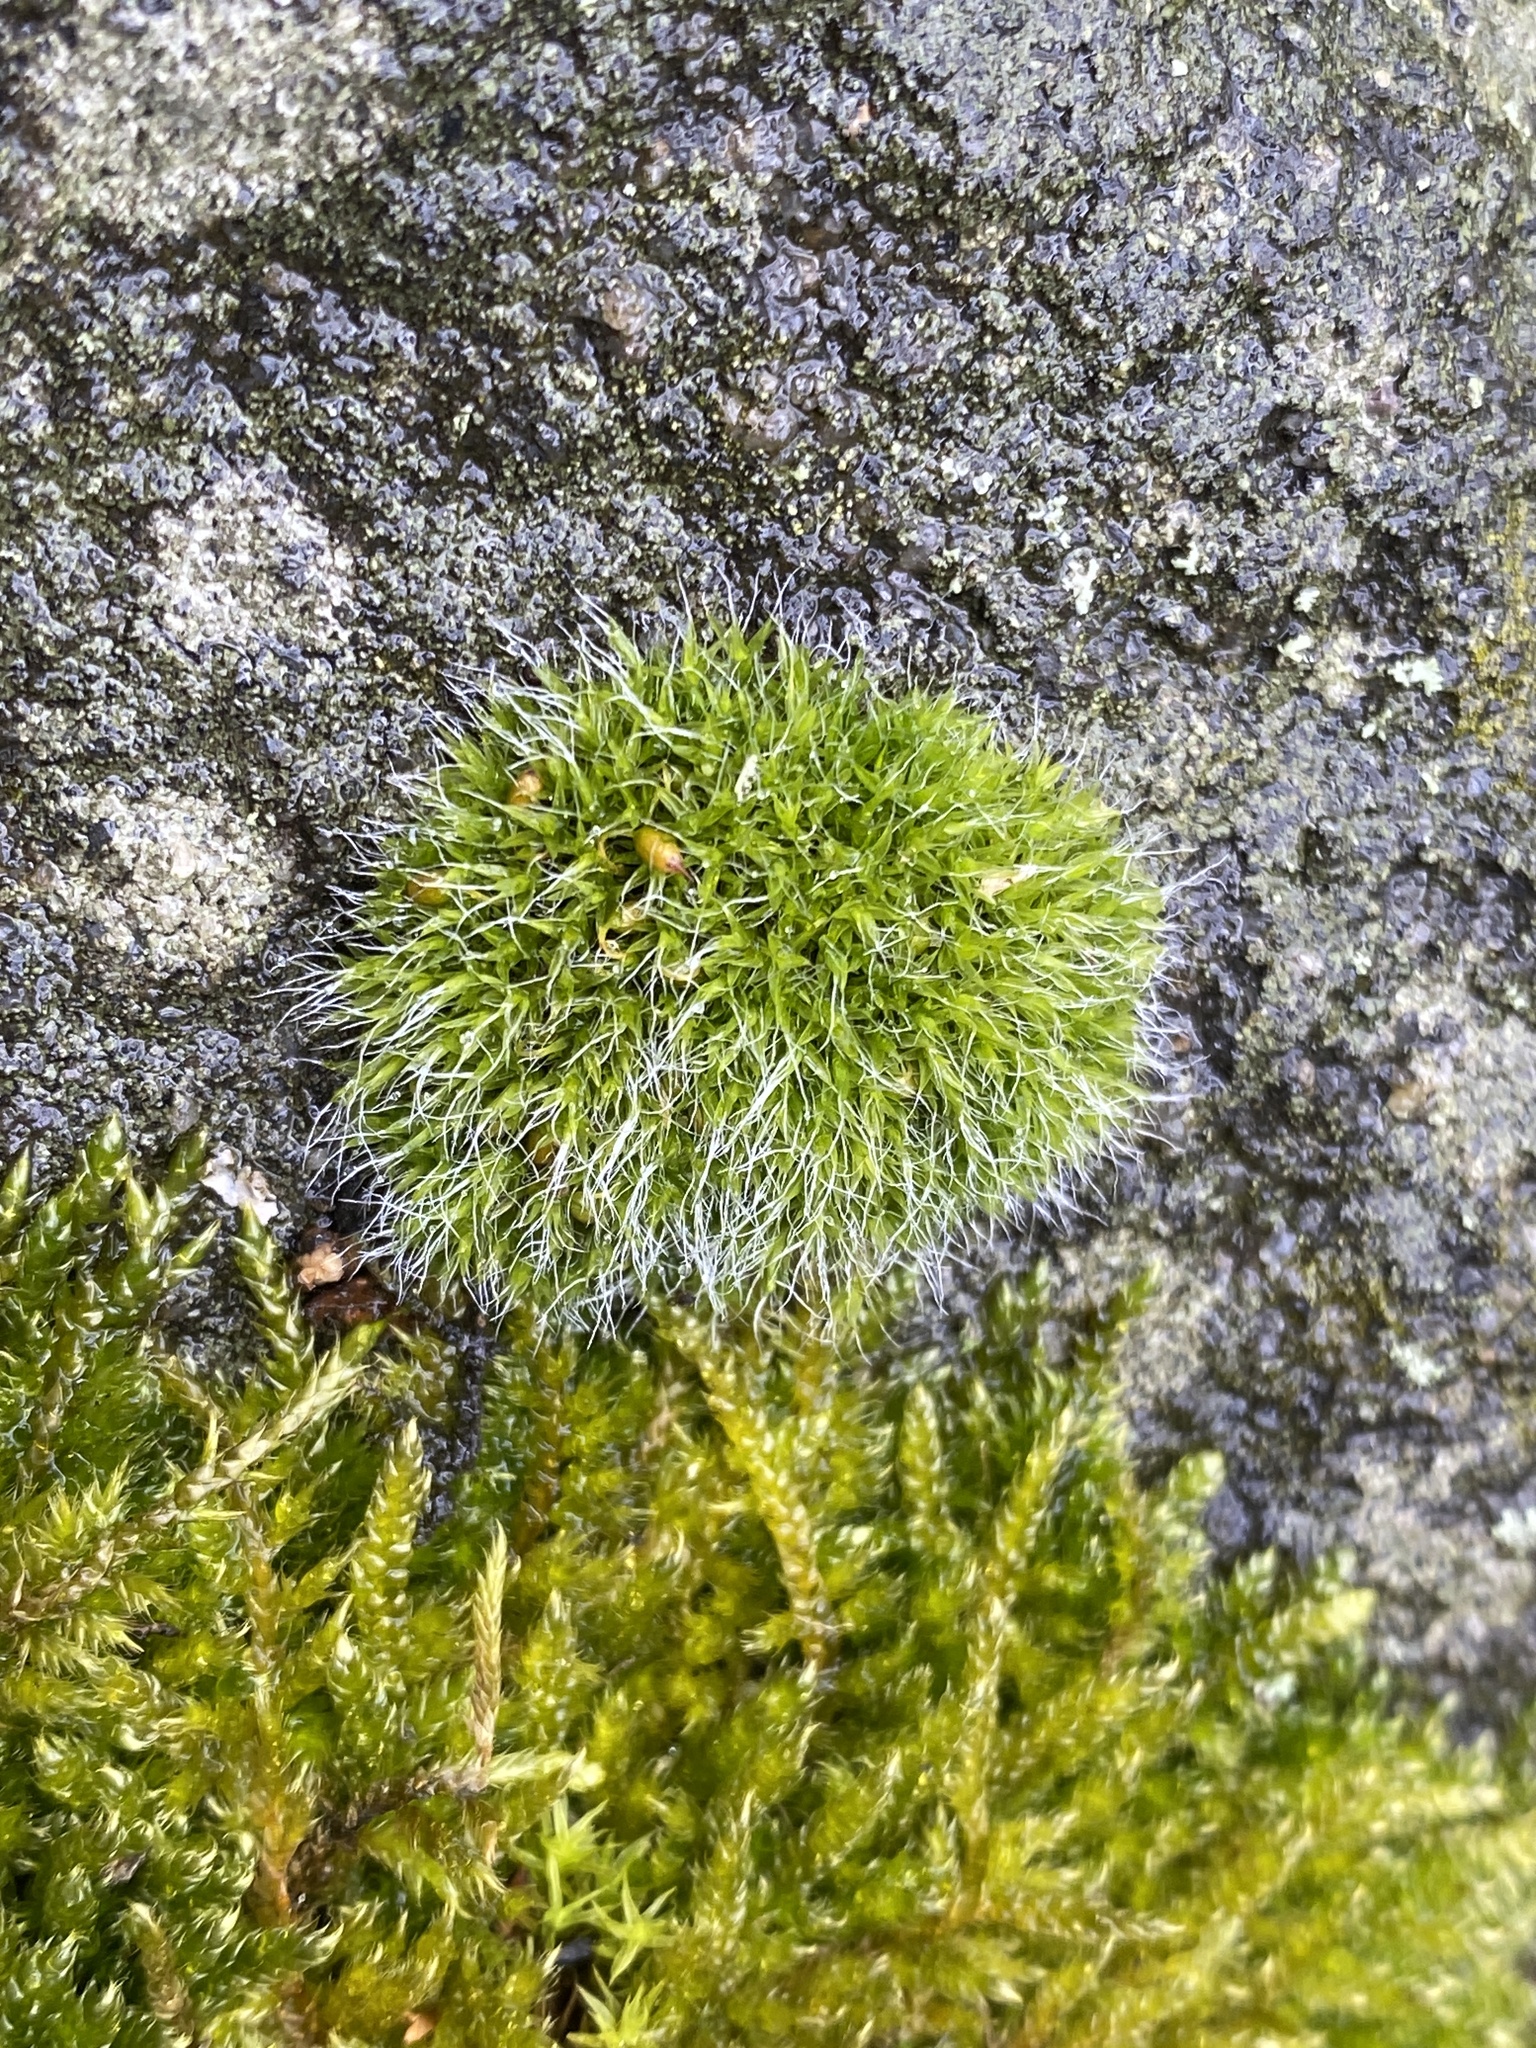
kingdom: Plantae
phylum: Bryophyta
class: Bryopsida
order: Grimmiales
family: Grimmiaceae
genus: Grimmia
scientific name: Grimmia pulvinata
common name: Grey-cushioned grimmia
